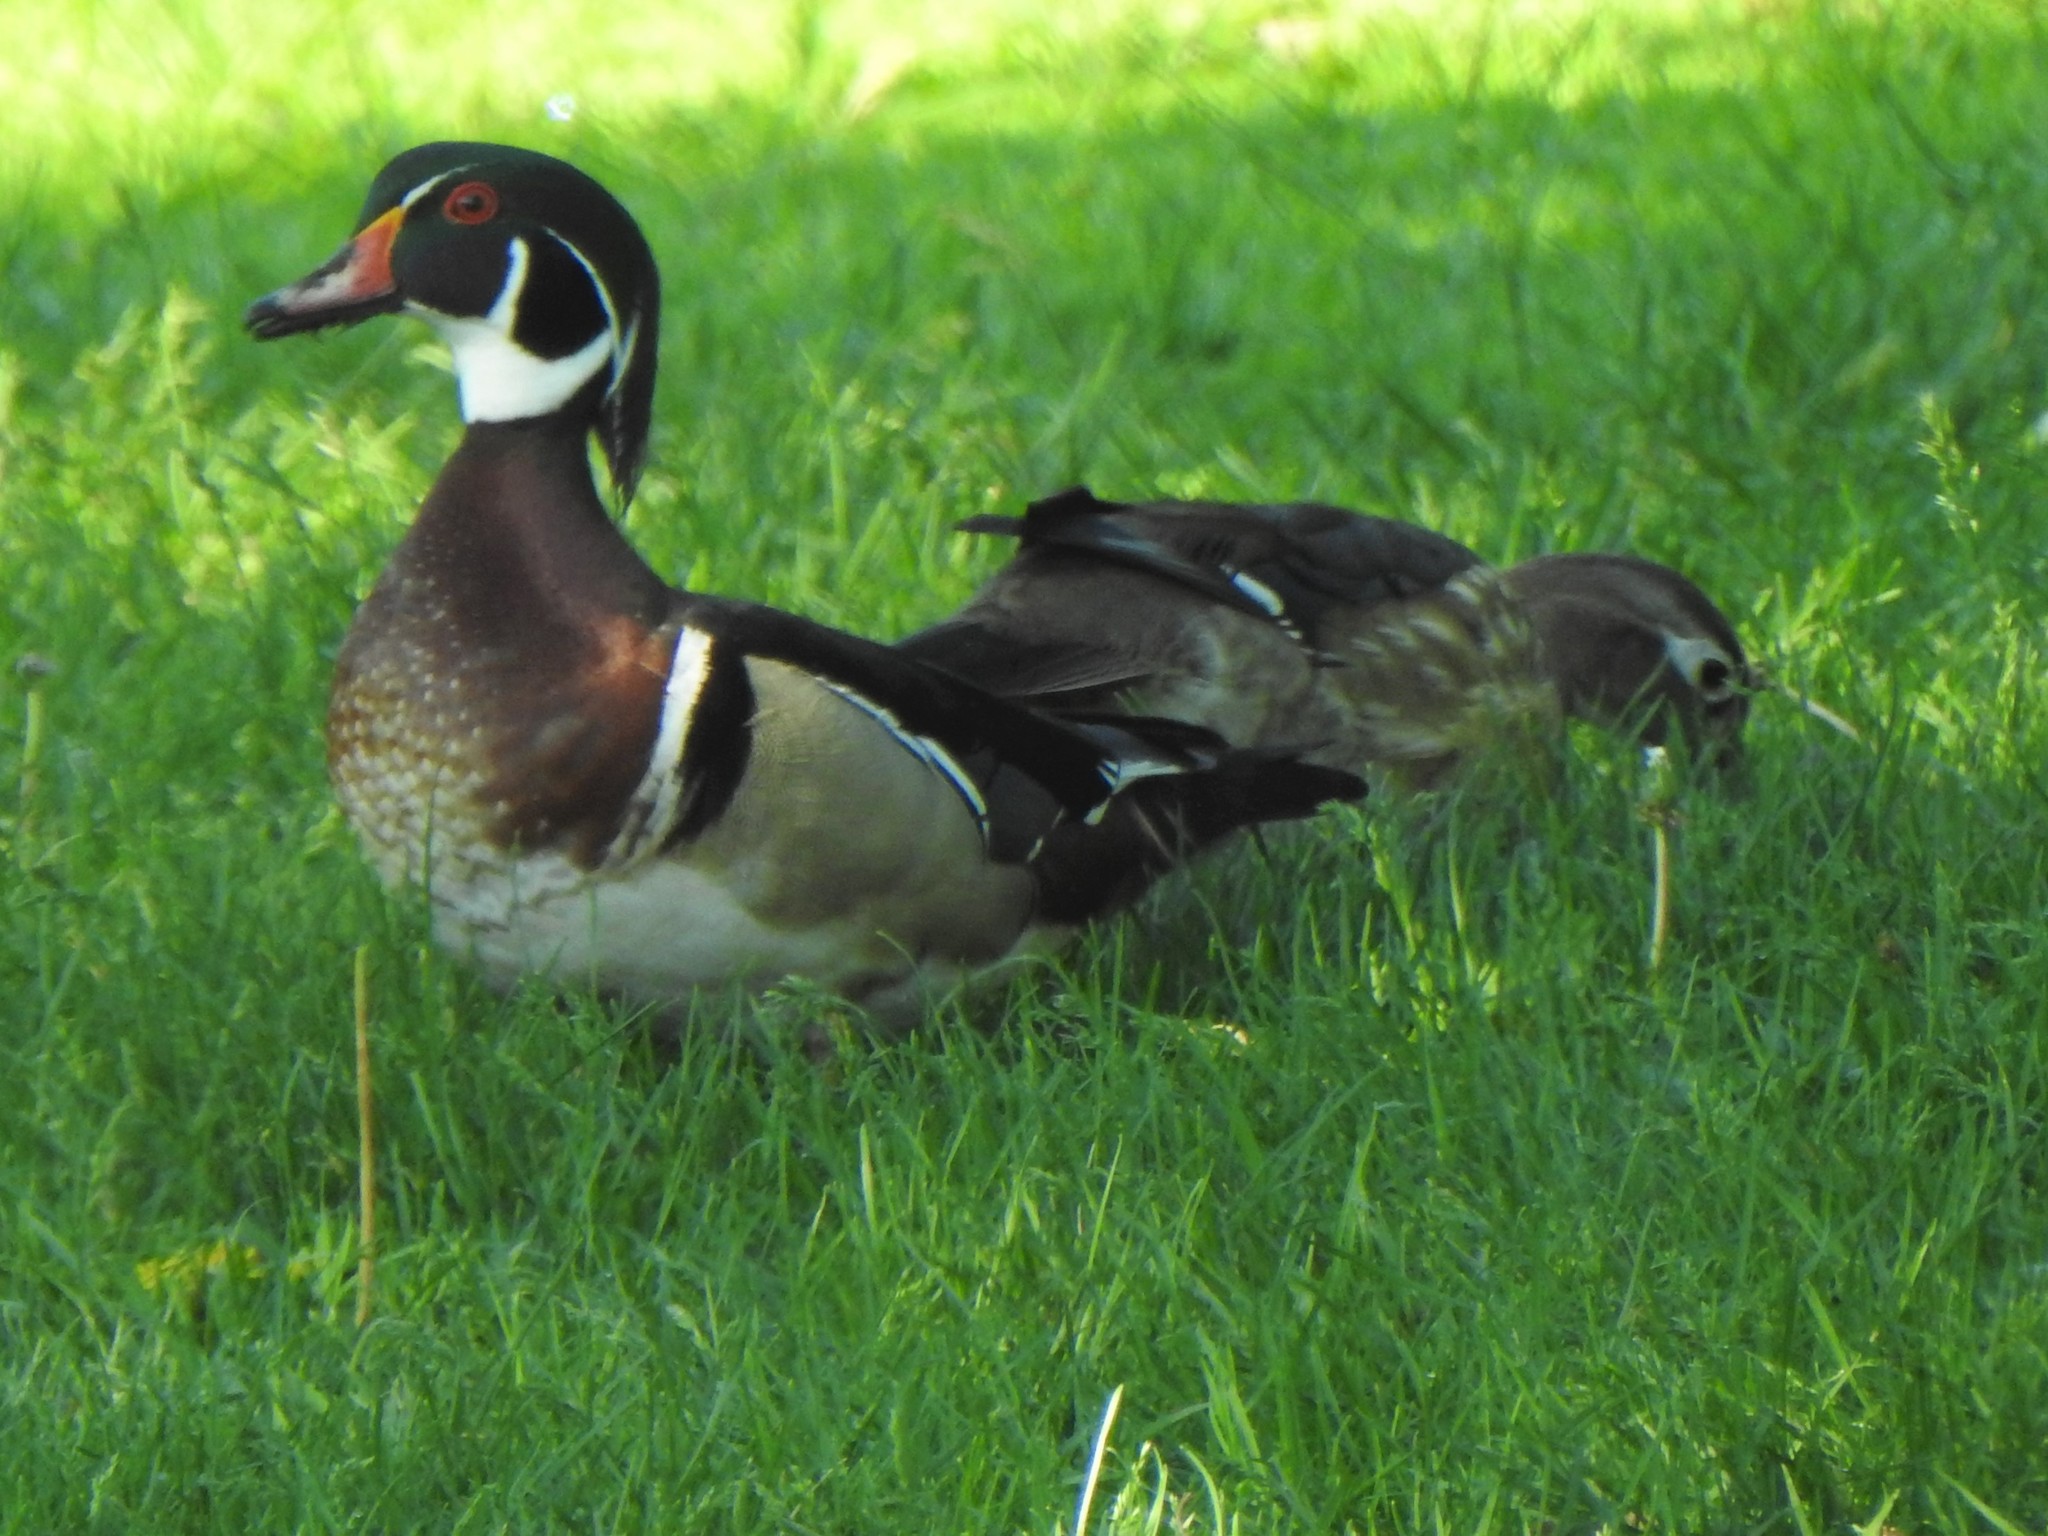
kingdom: Animalia
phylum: Chordata
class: Aves
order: Anseriformes
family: Anatidae
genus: Aix
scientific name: Aix sponsa
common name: Wood duck
